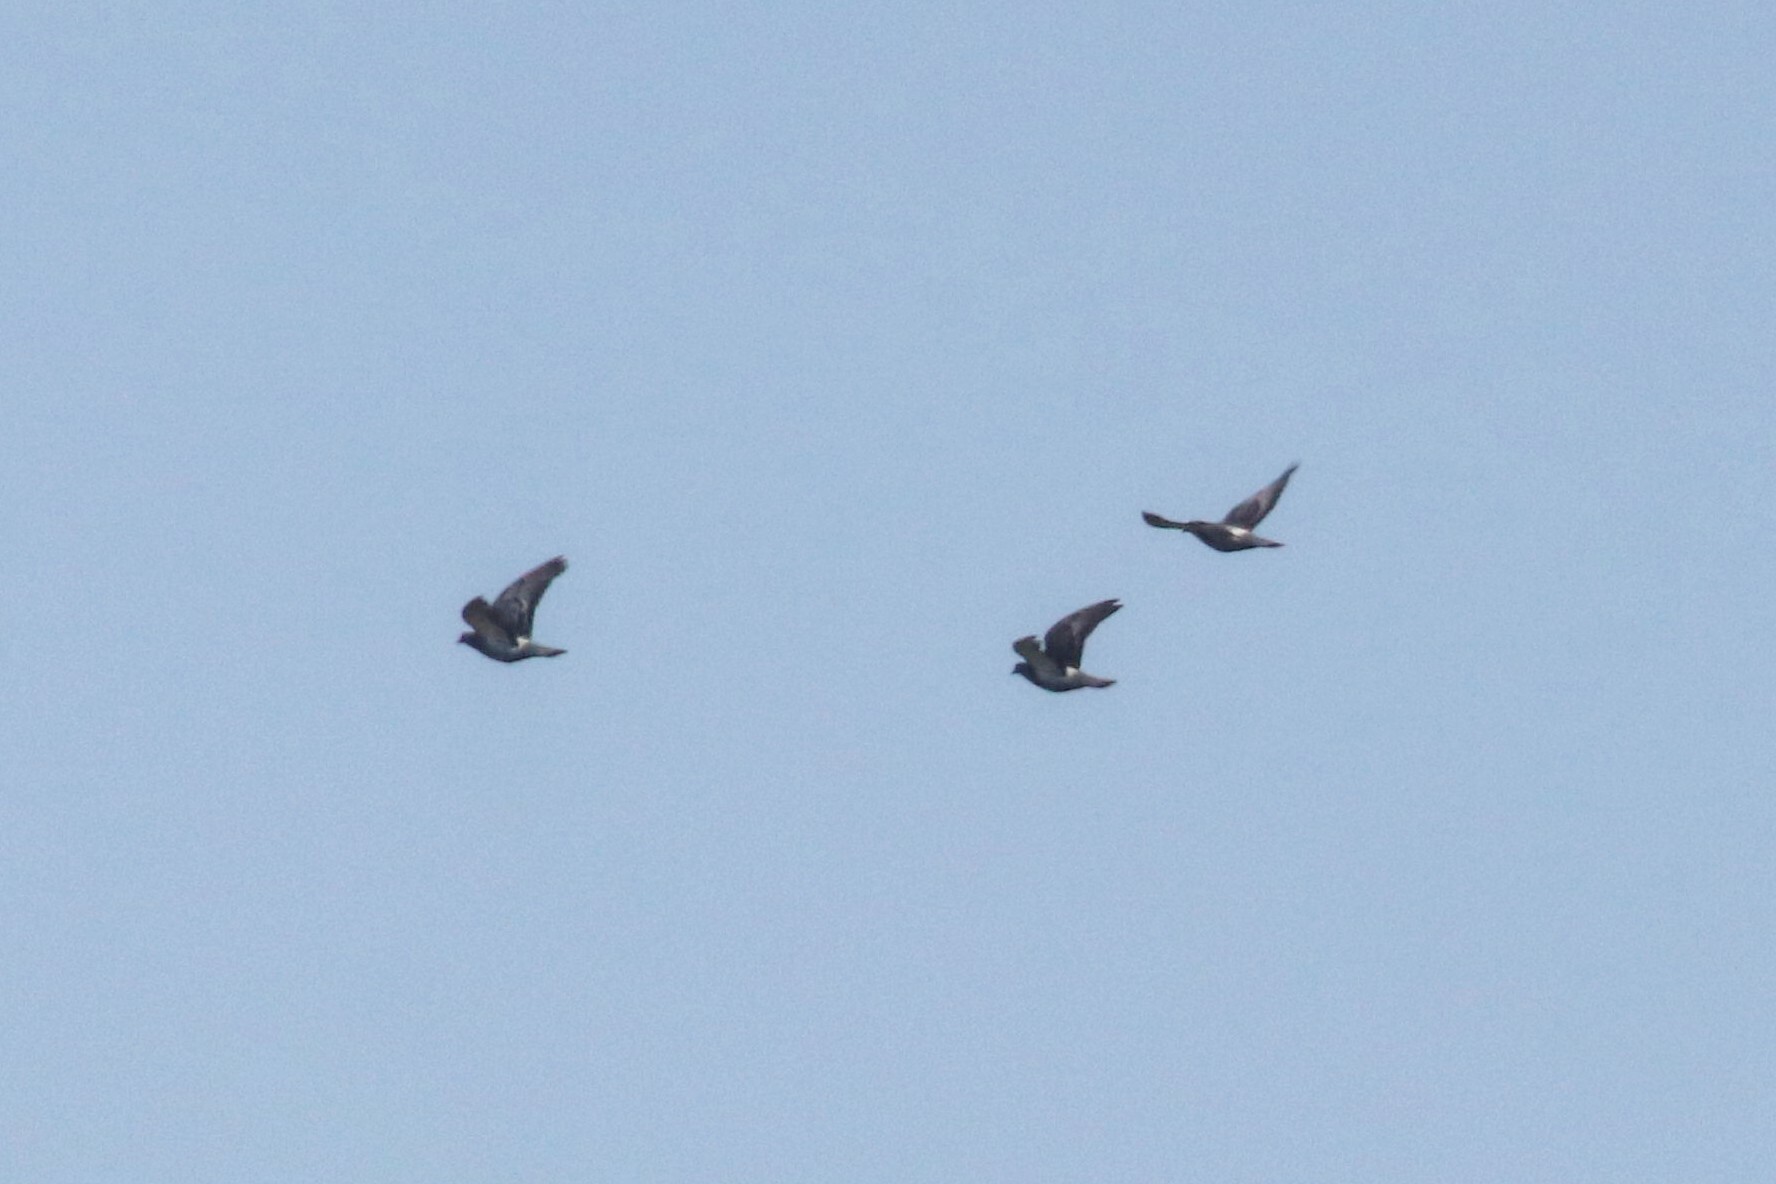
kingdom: Animalia
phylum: Chordata
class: Aves
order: Columbiformes
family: Columbidae
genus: Columba
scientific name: Columba livia
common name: Rock pigeon
